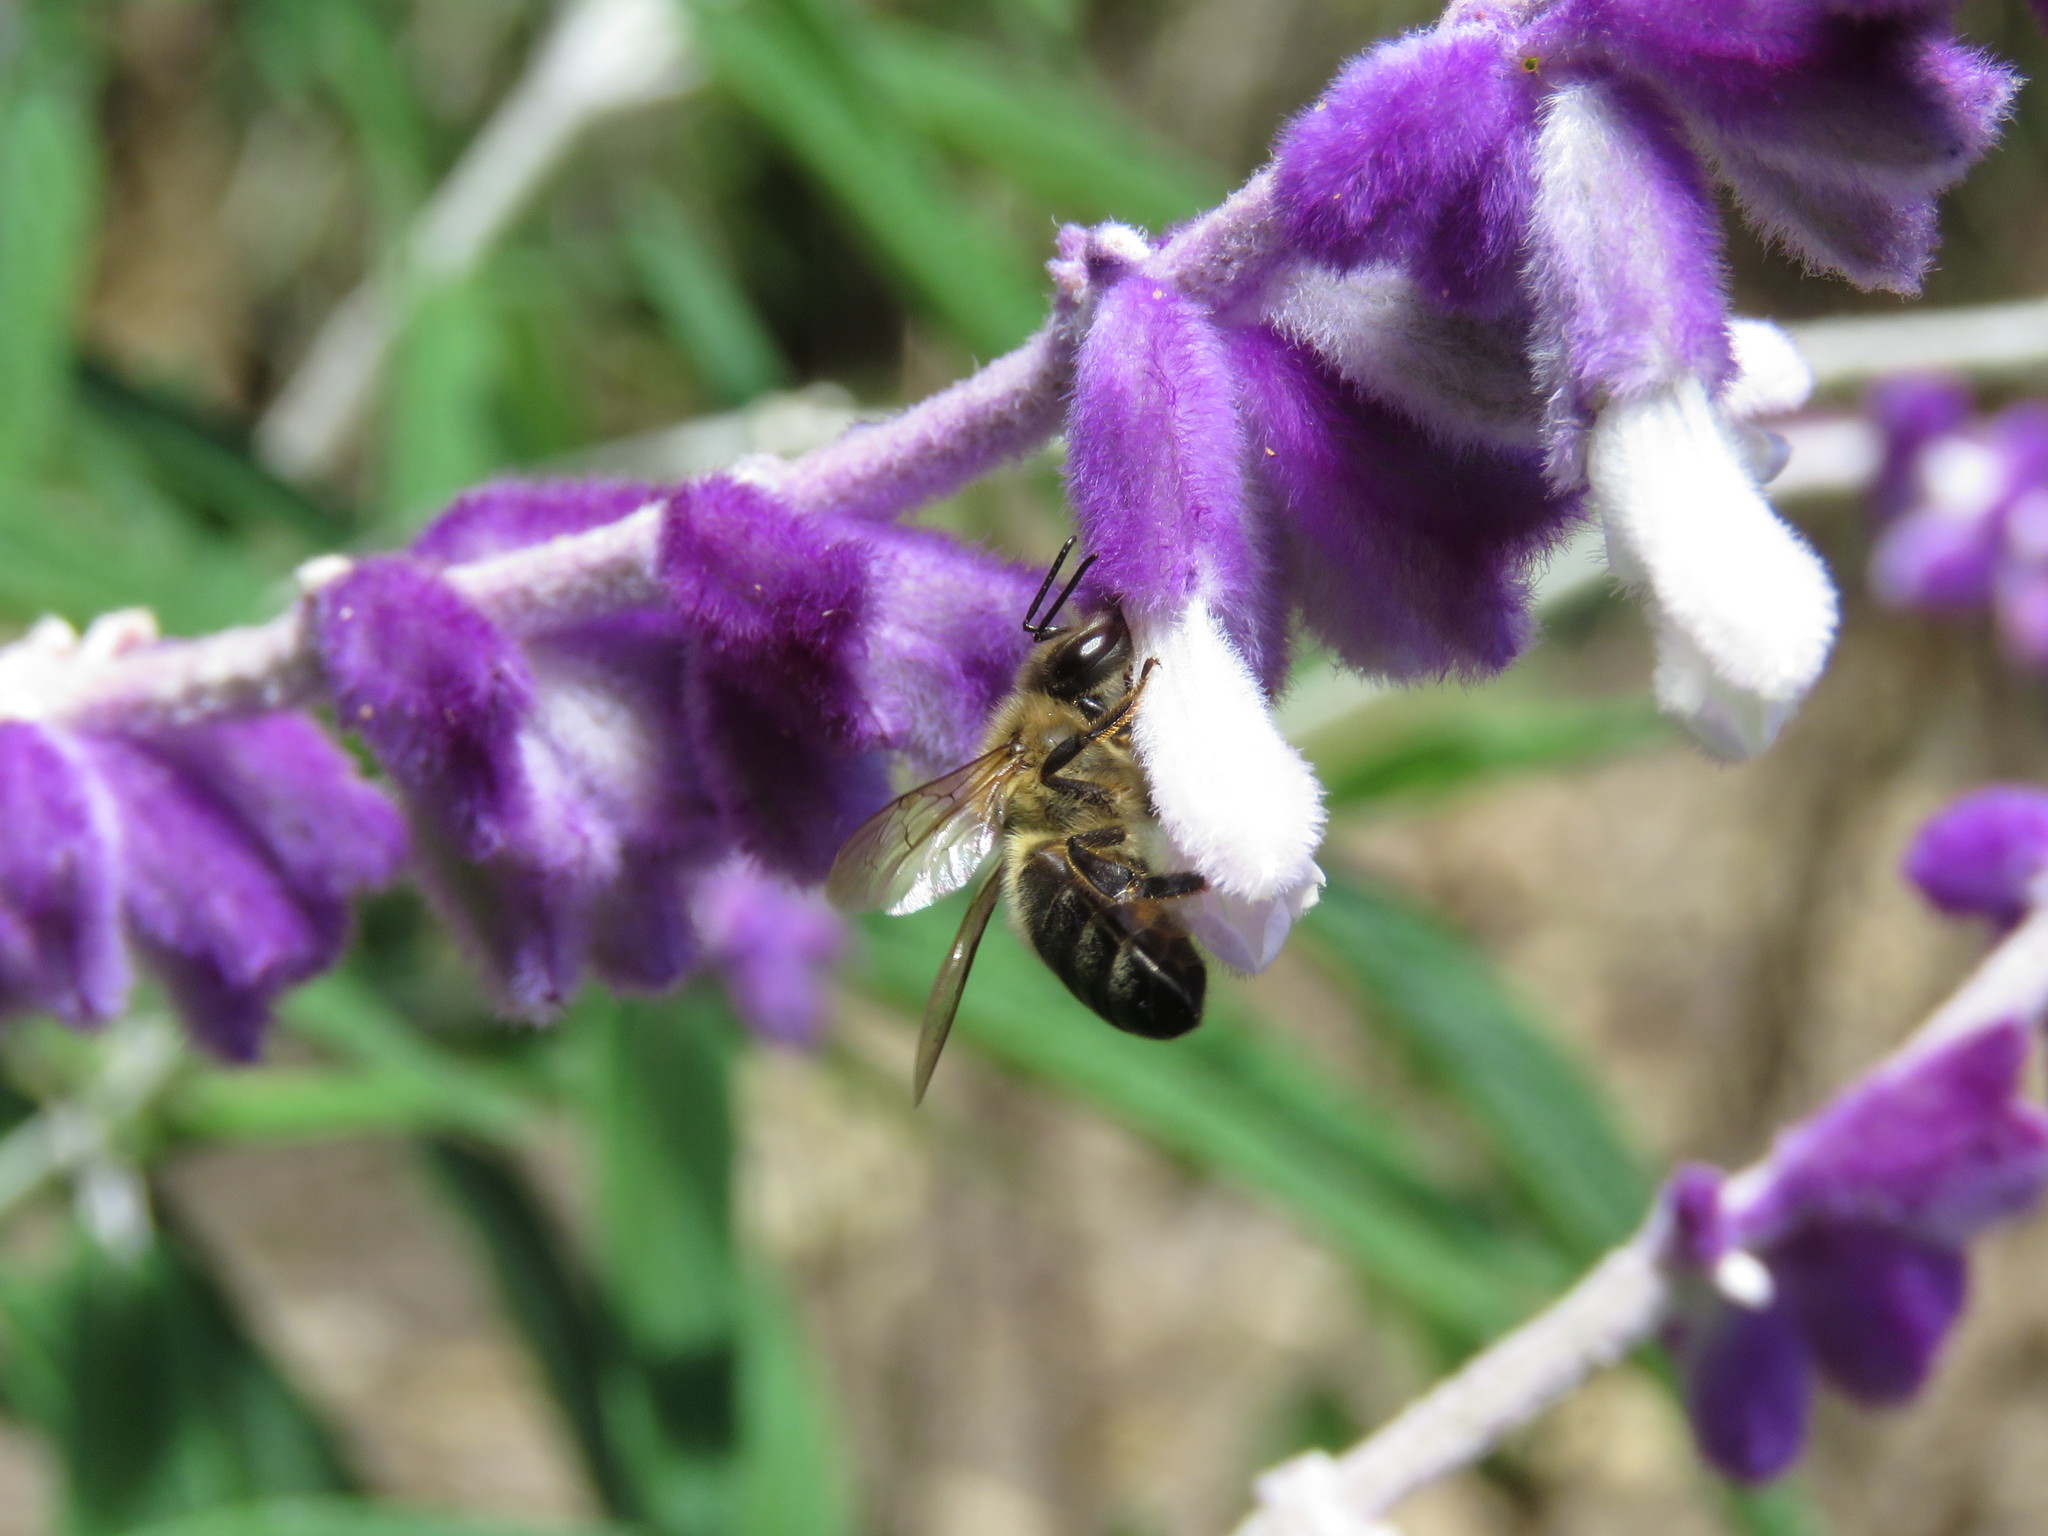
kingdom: Animalia
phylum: Arthropoda
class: Insecta
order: Hymenoptera
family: Apidae
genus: Apis
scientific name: Apis mellifera
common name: Honey bee
